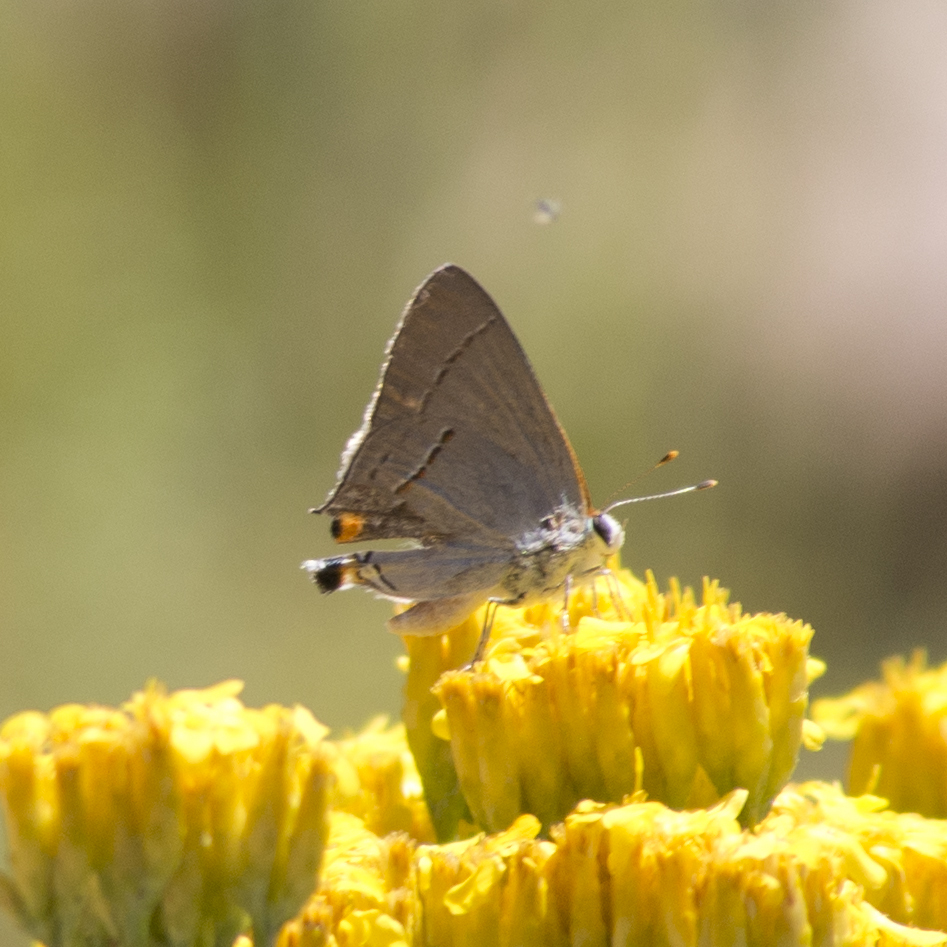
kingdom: Animalia
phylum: Arthropoda
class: Insecta
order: Lepidoptera
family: Lycaenidae
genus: Strymon
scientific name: Strymon melinus
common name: Gray hairstreak
